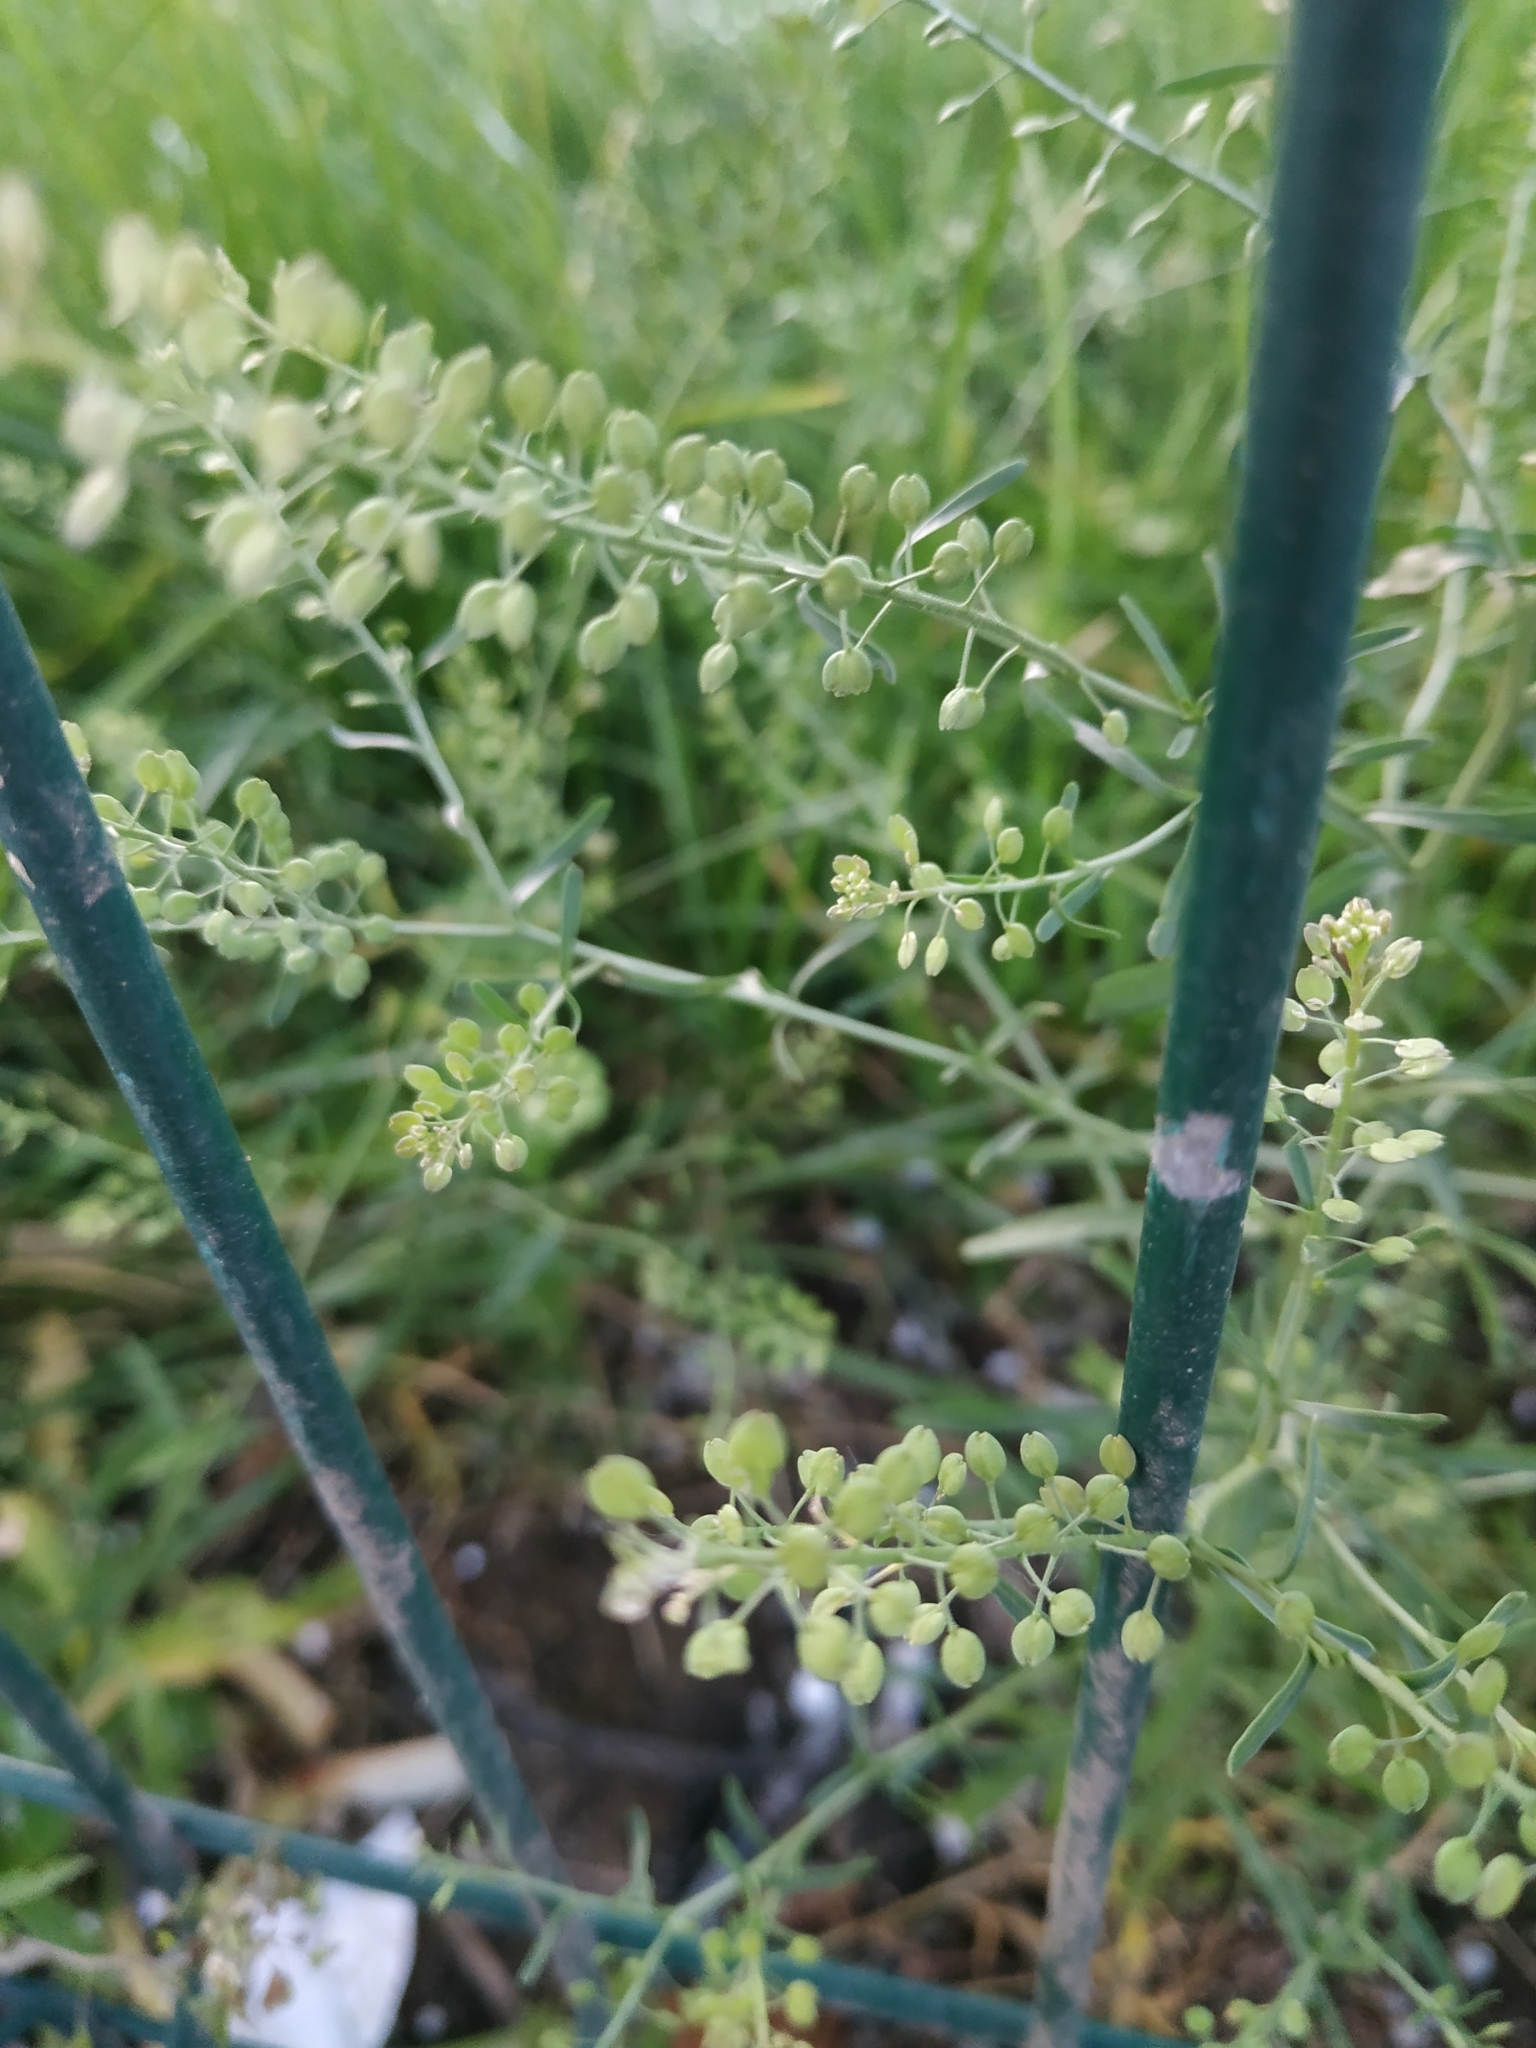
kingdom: Plantae
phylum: Tracheophyta
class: Magnoliopsida
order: Brassicales
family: Brassicaceae
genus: Lepidium
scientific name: Lepidium ruderale
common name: Narrow-leaved pepperwort
